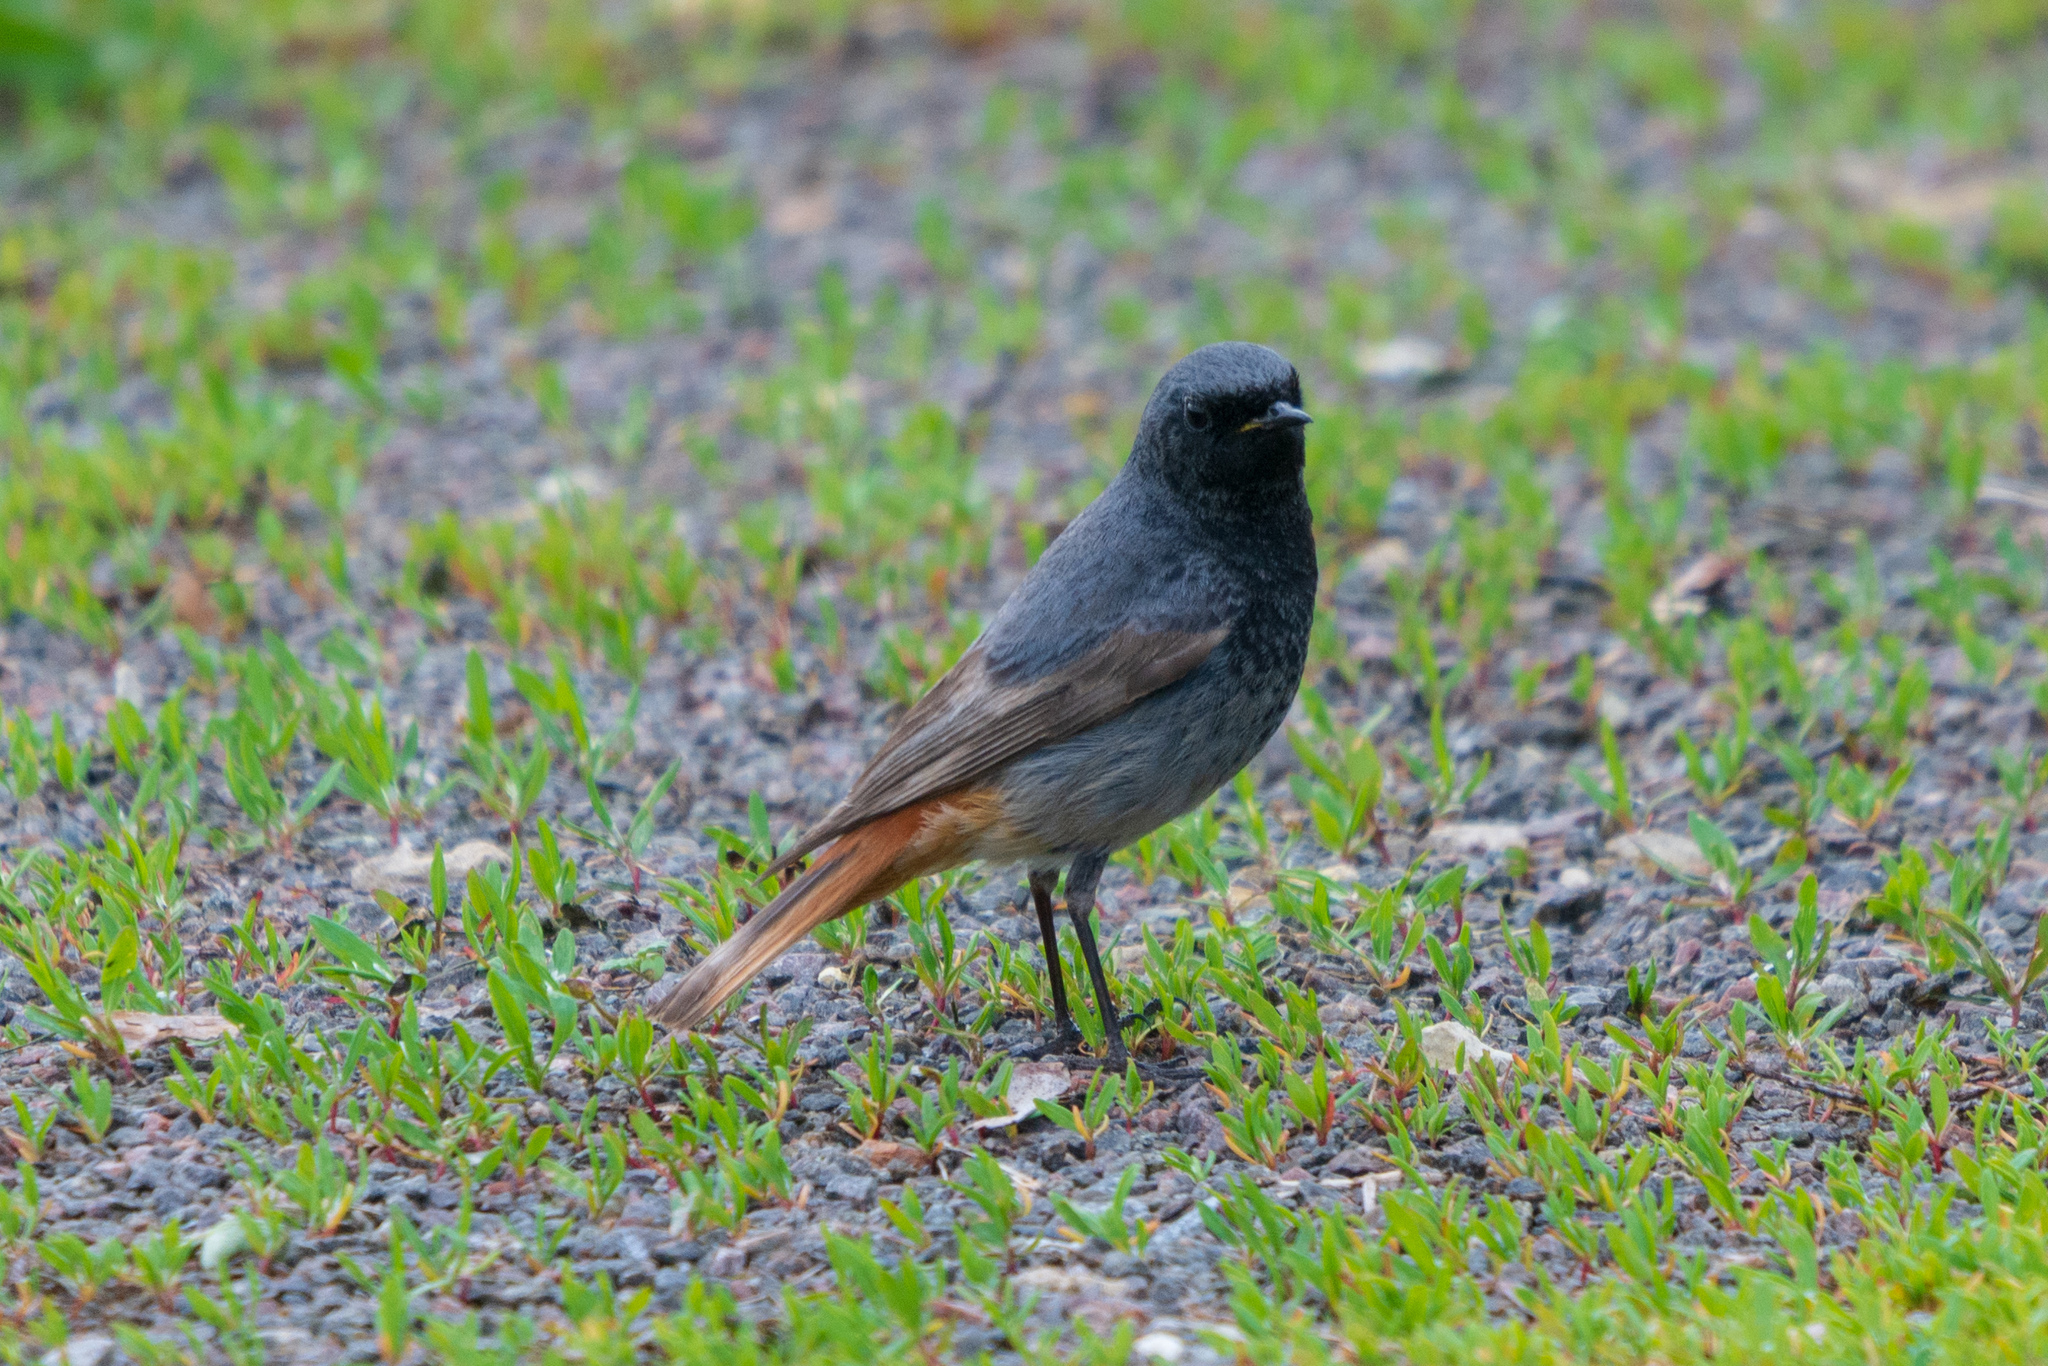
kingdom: Animalia
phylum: Chordata
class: Aves
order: Passeriformes
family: Muscicapidae
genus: Phoenicurus
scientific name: Phoenicurus ochruros
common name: Black redstart
